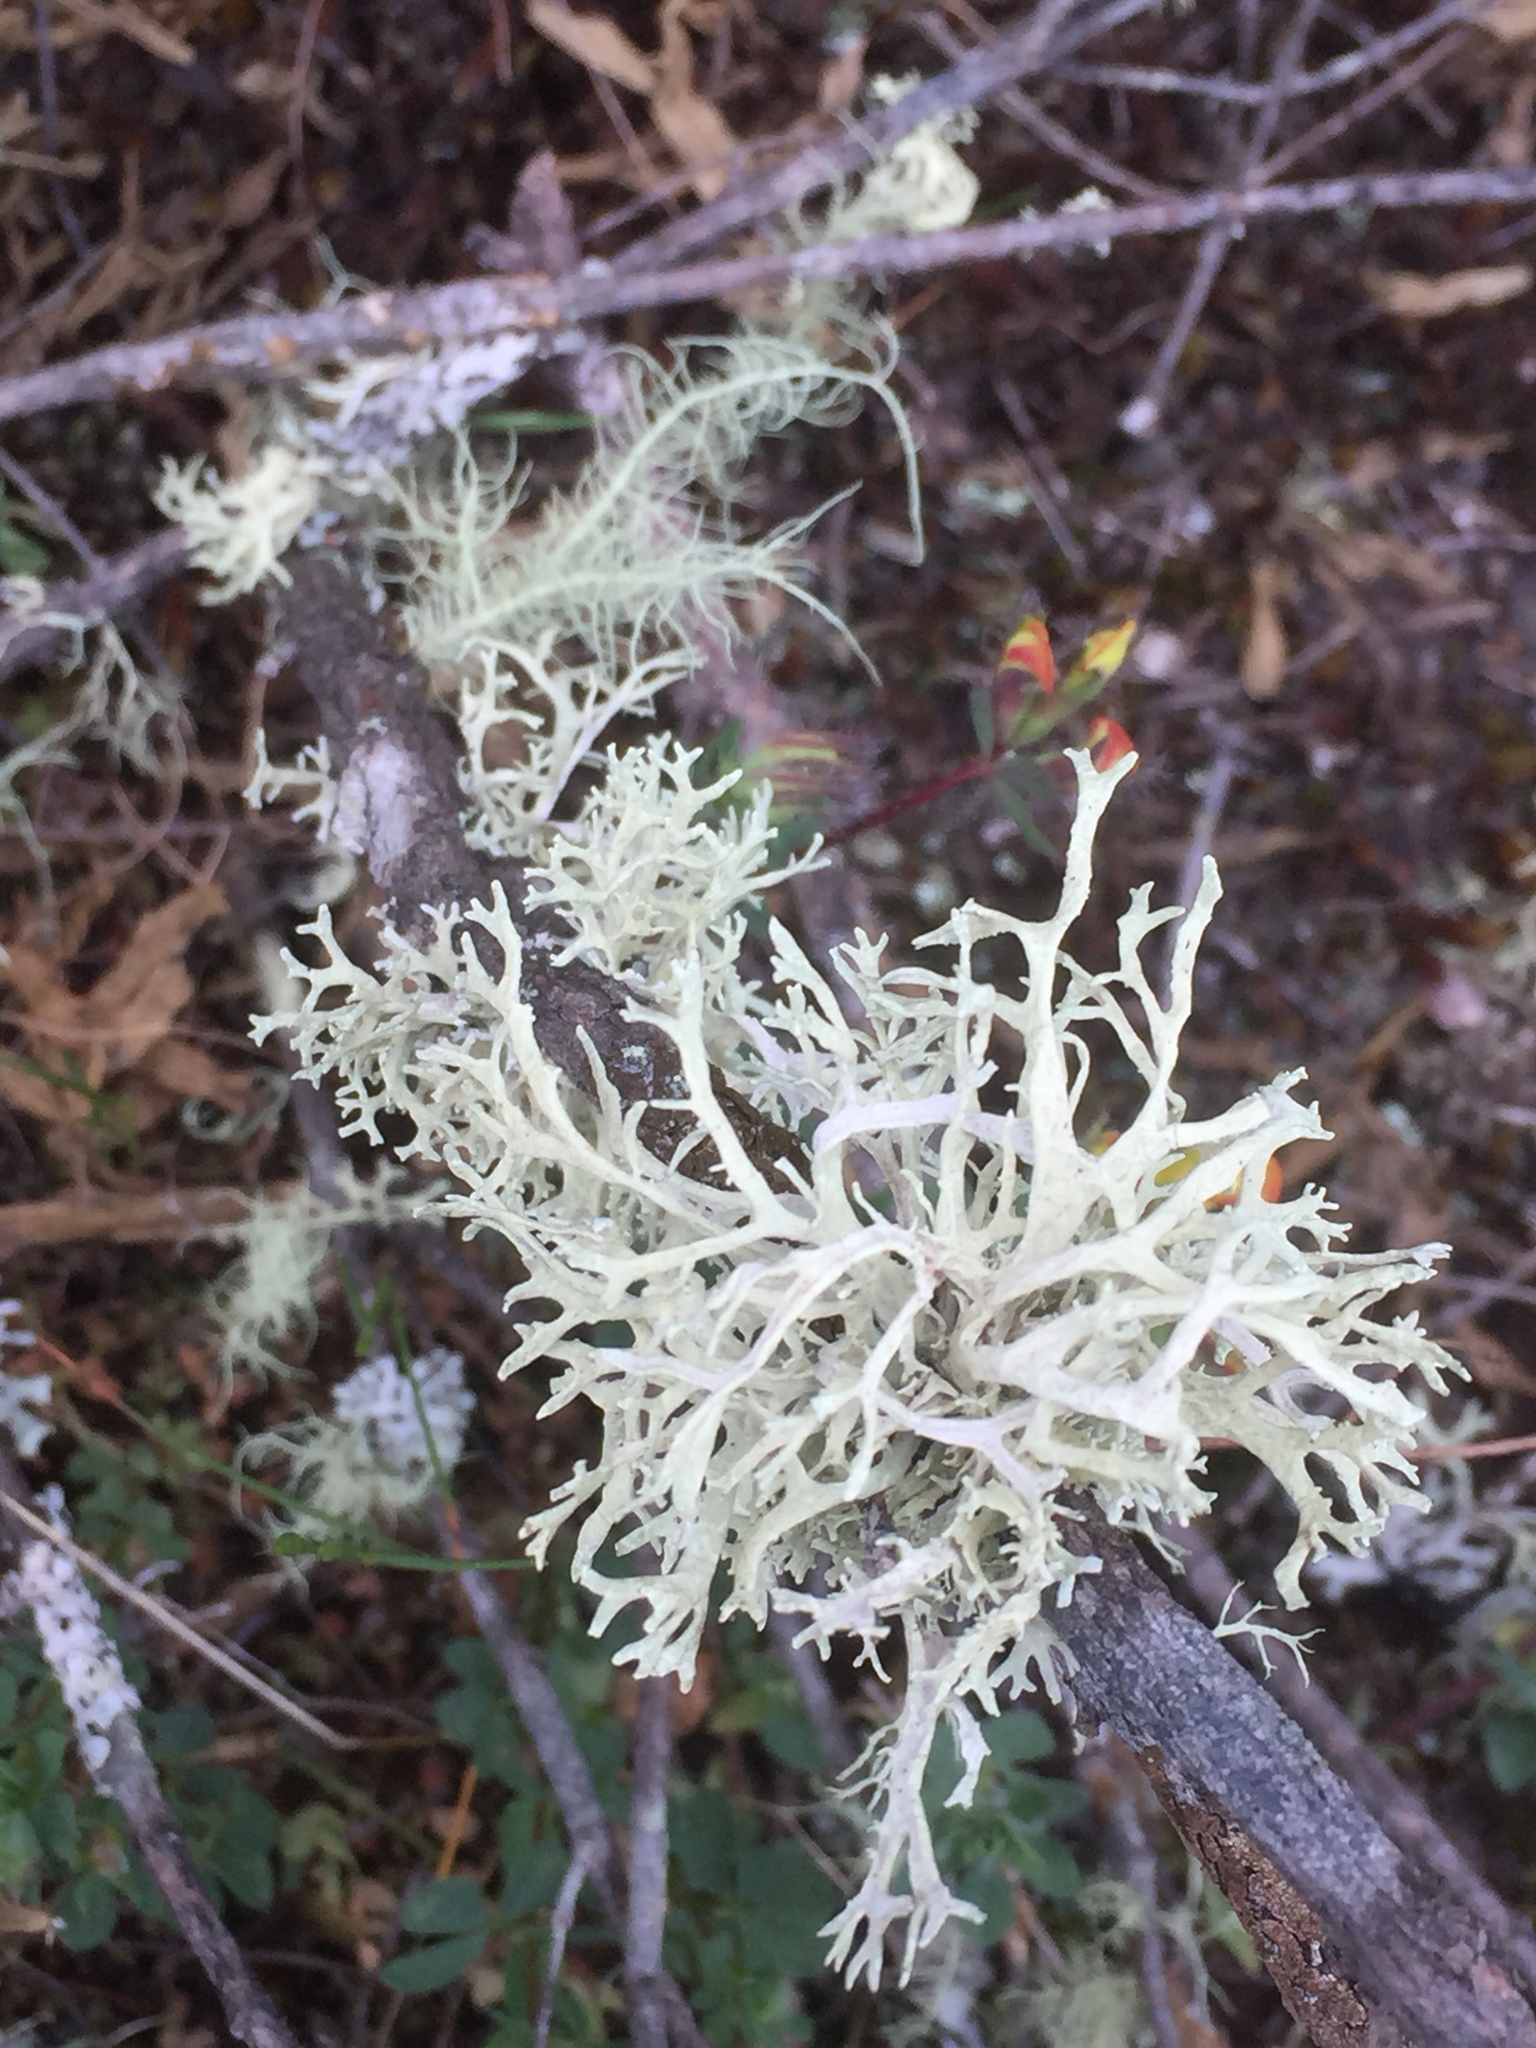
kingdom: Fungi
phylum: Ascomycota
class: Lecanoromycetes
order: Lecanorales
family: Parmeliaceae
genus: Evernia
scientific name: Evernia prunastri
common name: Oak moss
